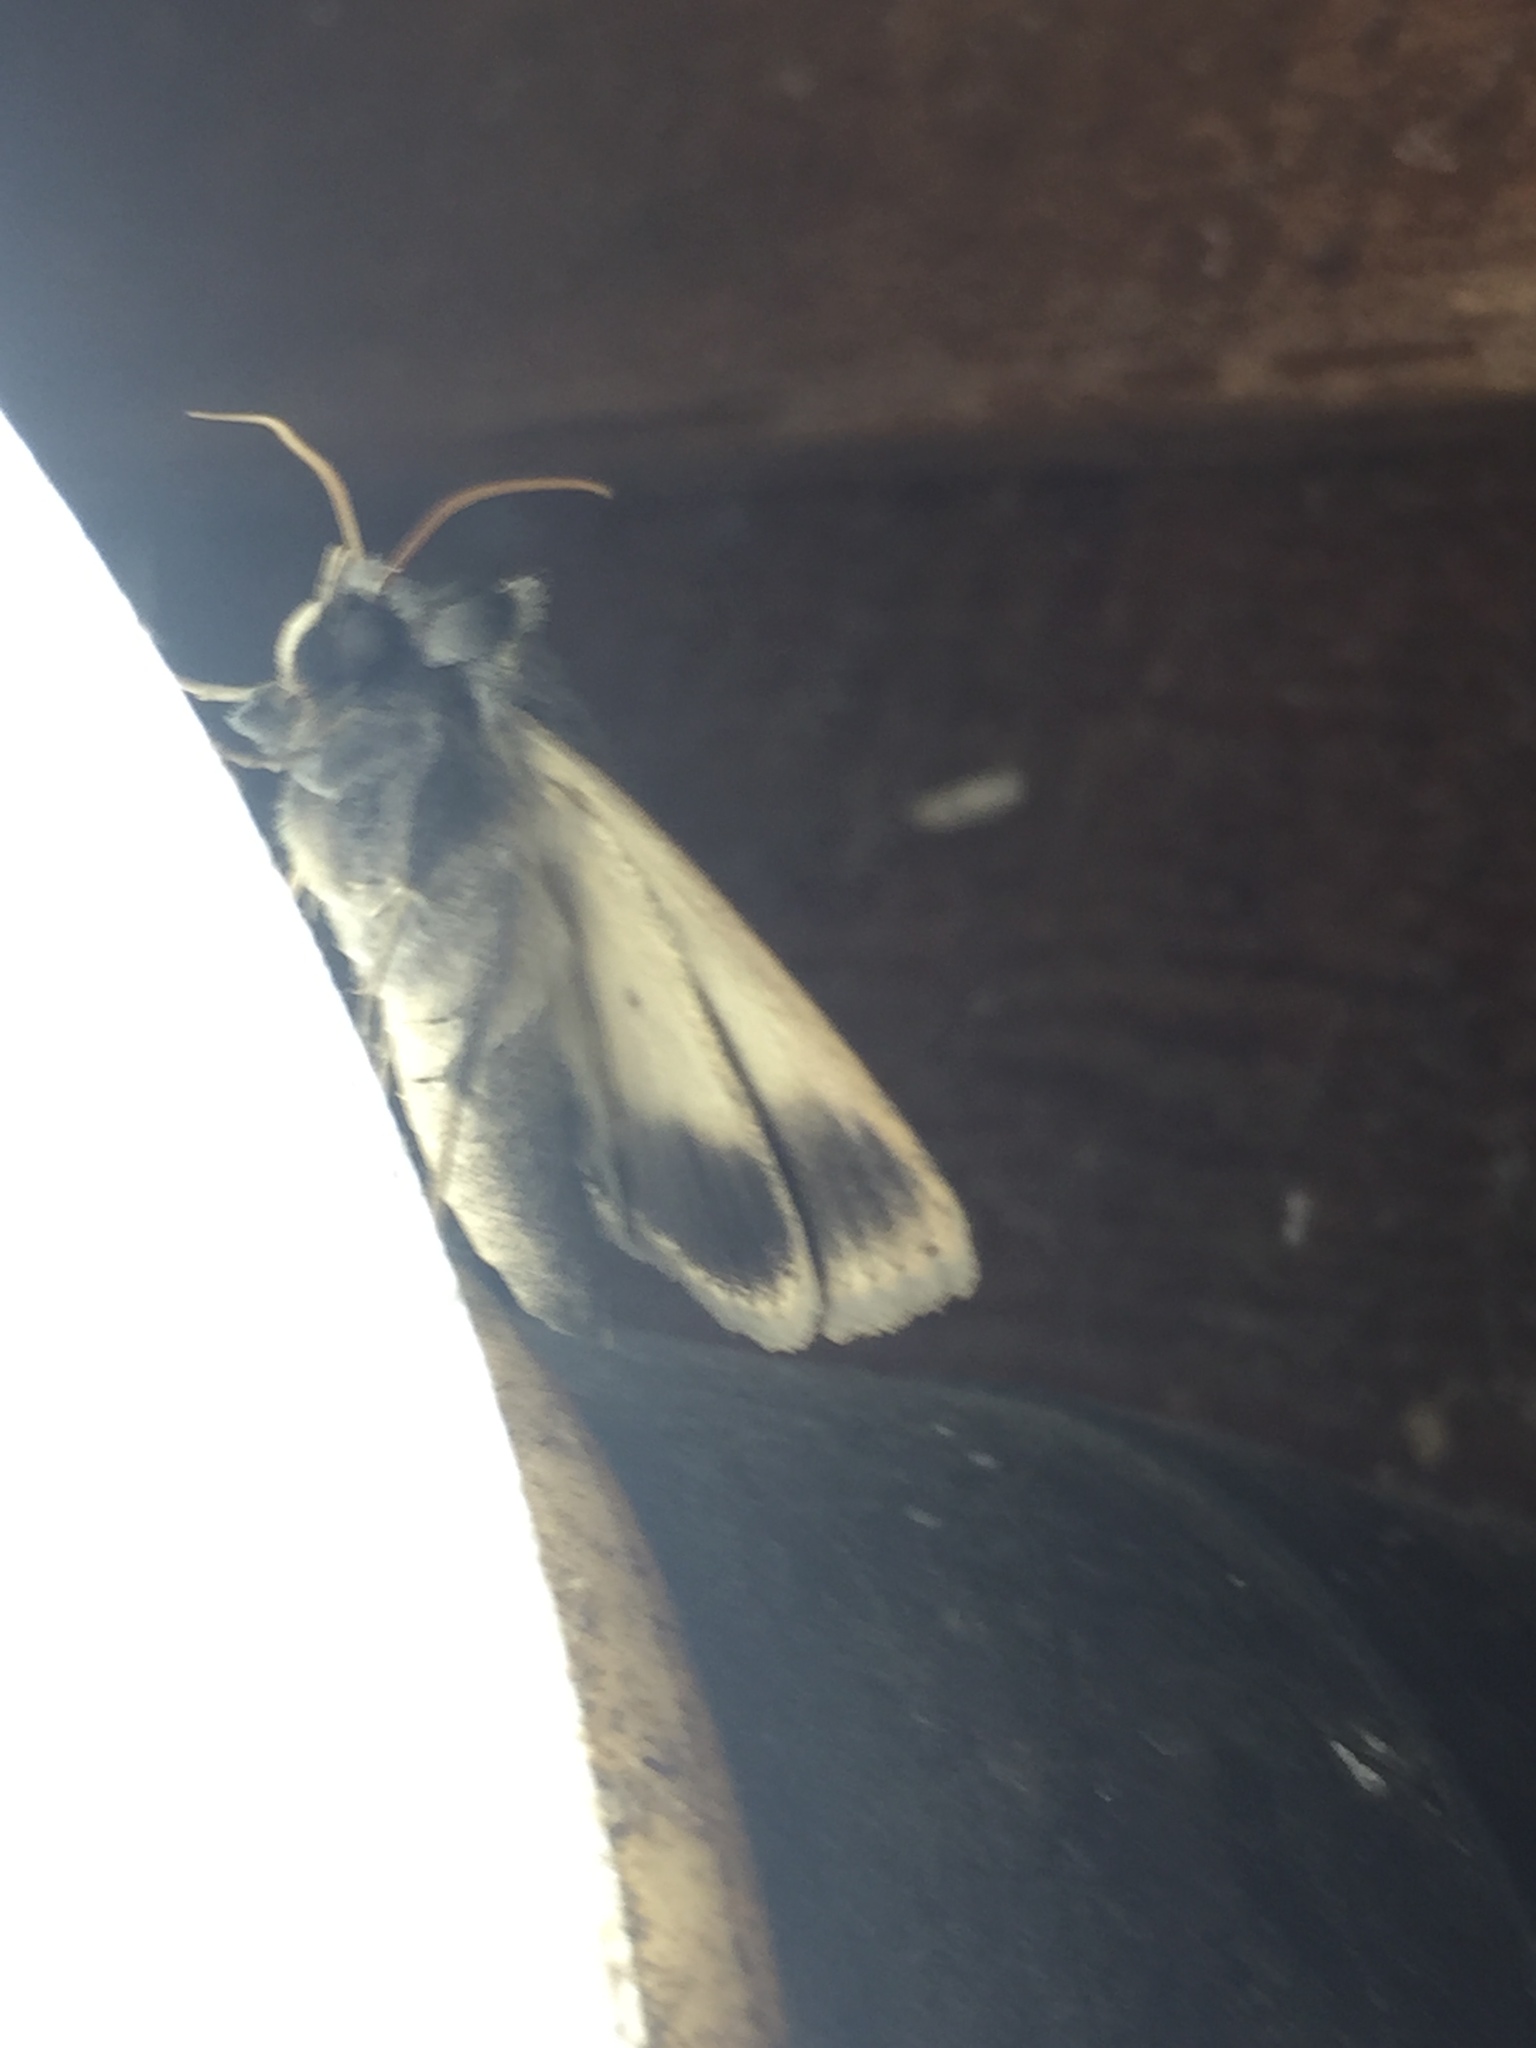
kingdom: Animalia
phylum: Arthropoda
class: Insecta
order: Lepidoptera
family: Erebidae
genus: Pantydia
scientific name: Pantydia sparsa
